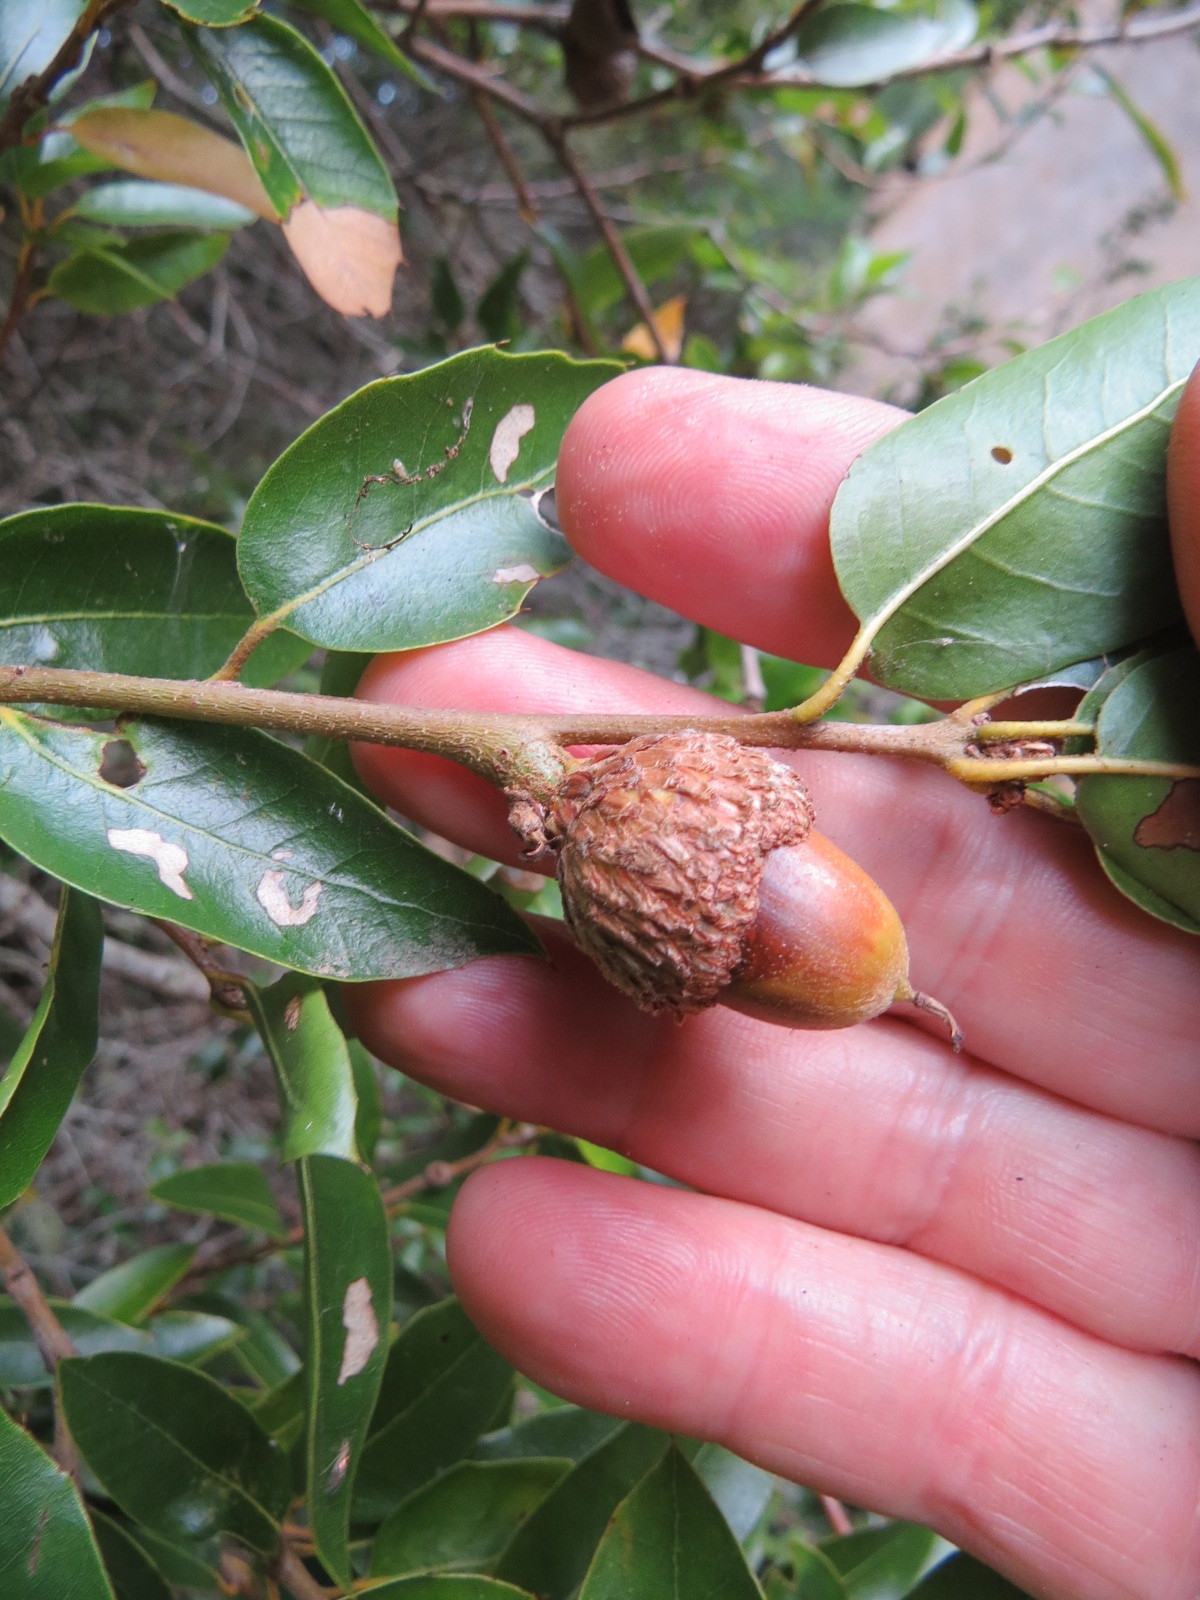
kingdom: Animalia
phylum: Arthropoda
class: Insecta
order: Hymenoptera
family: Cynipidae
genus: Dryocosmus
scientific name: Dryocosmus
